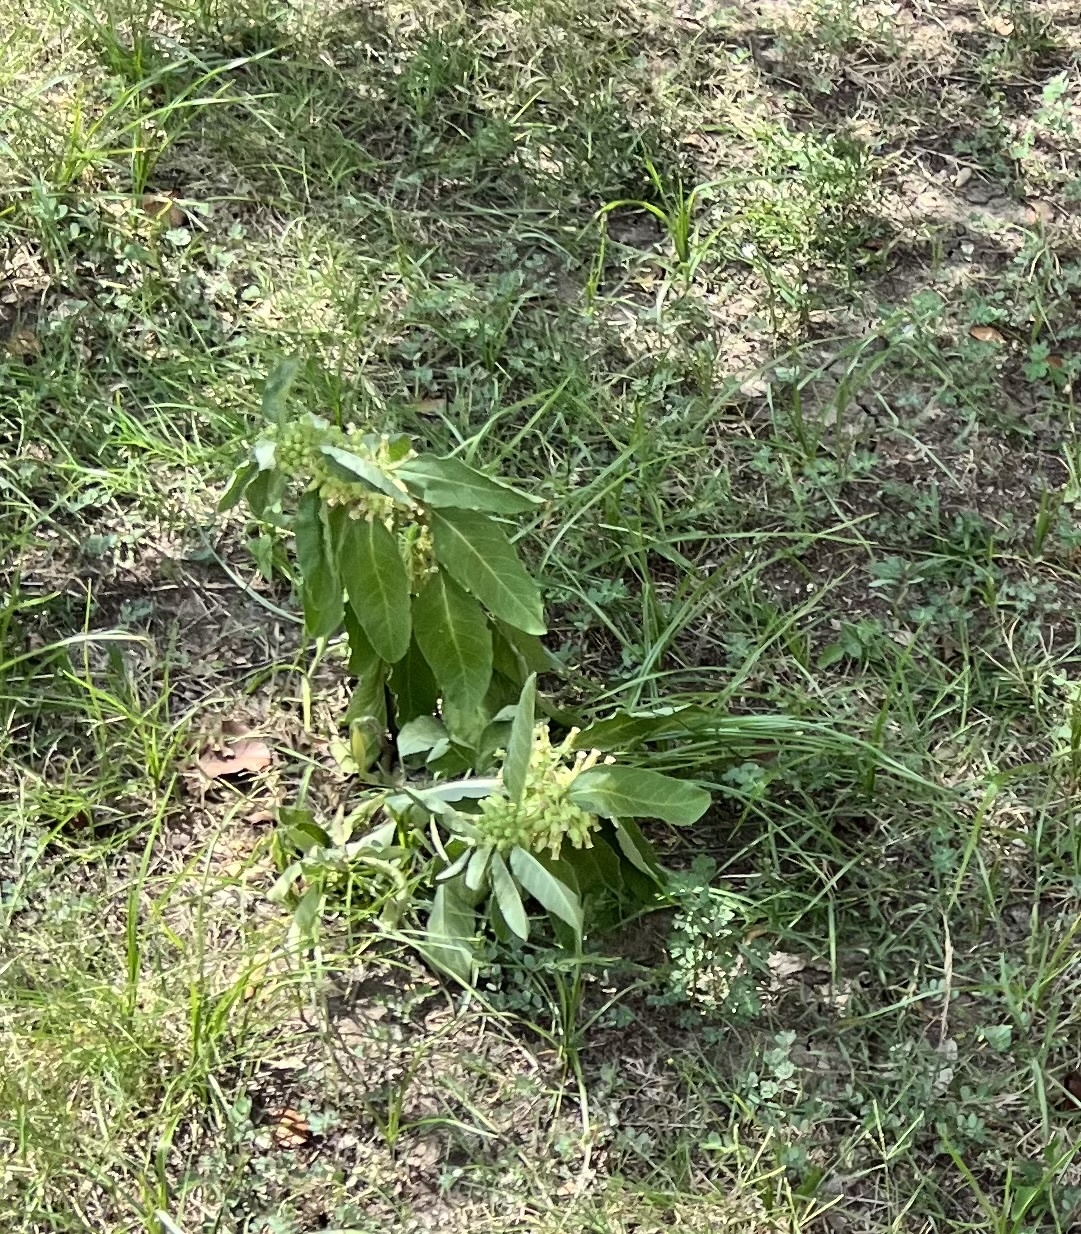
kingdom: Plantae
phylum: Tracheophyta
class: Magnoliopsida
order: Gentianales
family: Apocynaceae
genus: Asclepias
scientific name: Asclepias oenotheroides
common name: Zizotes milkweed
